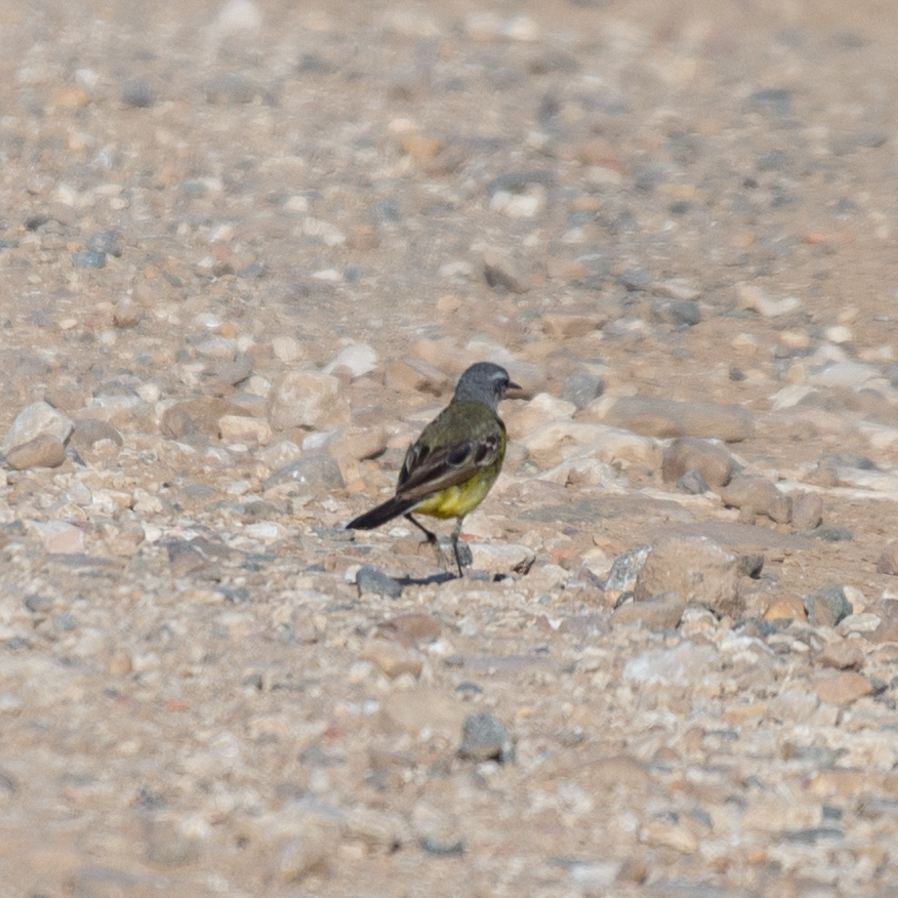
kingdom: Animalia
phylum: Chordata
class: Aves
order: Passeriformes
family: Motacillidae
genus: Motacilla
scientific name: Motacilla flava
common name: Western yellow wagtail
